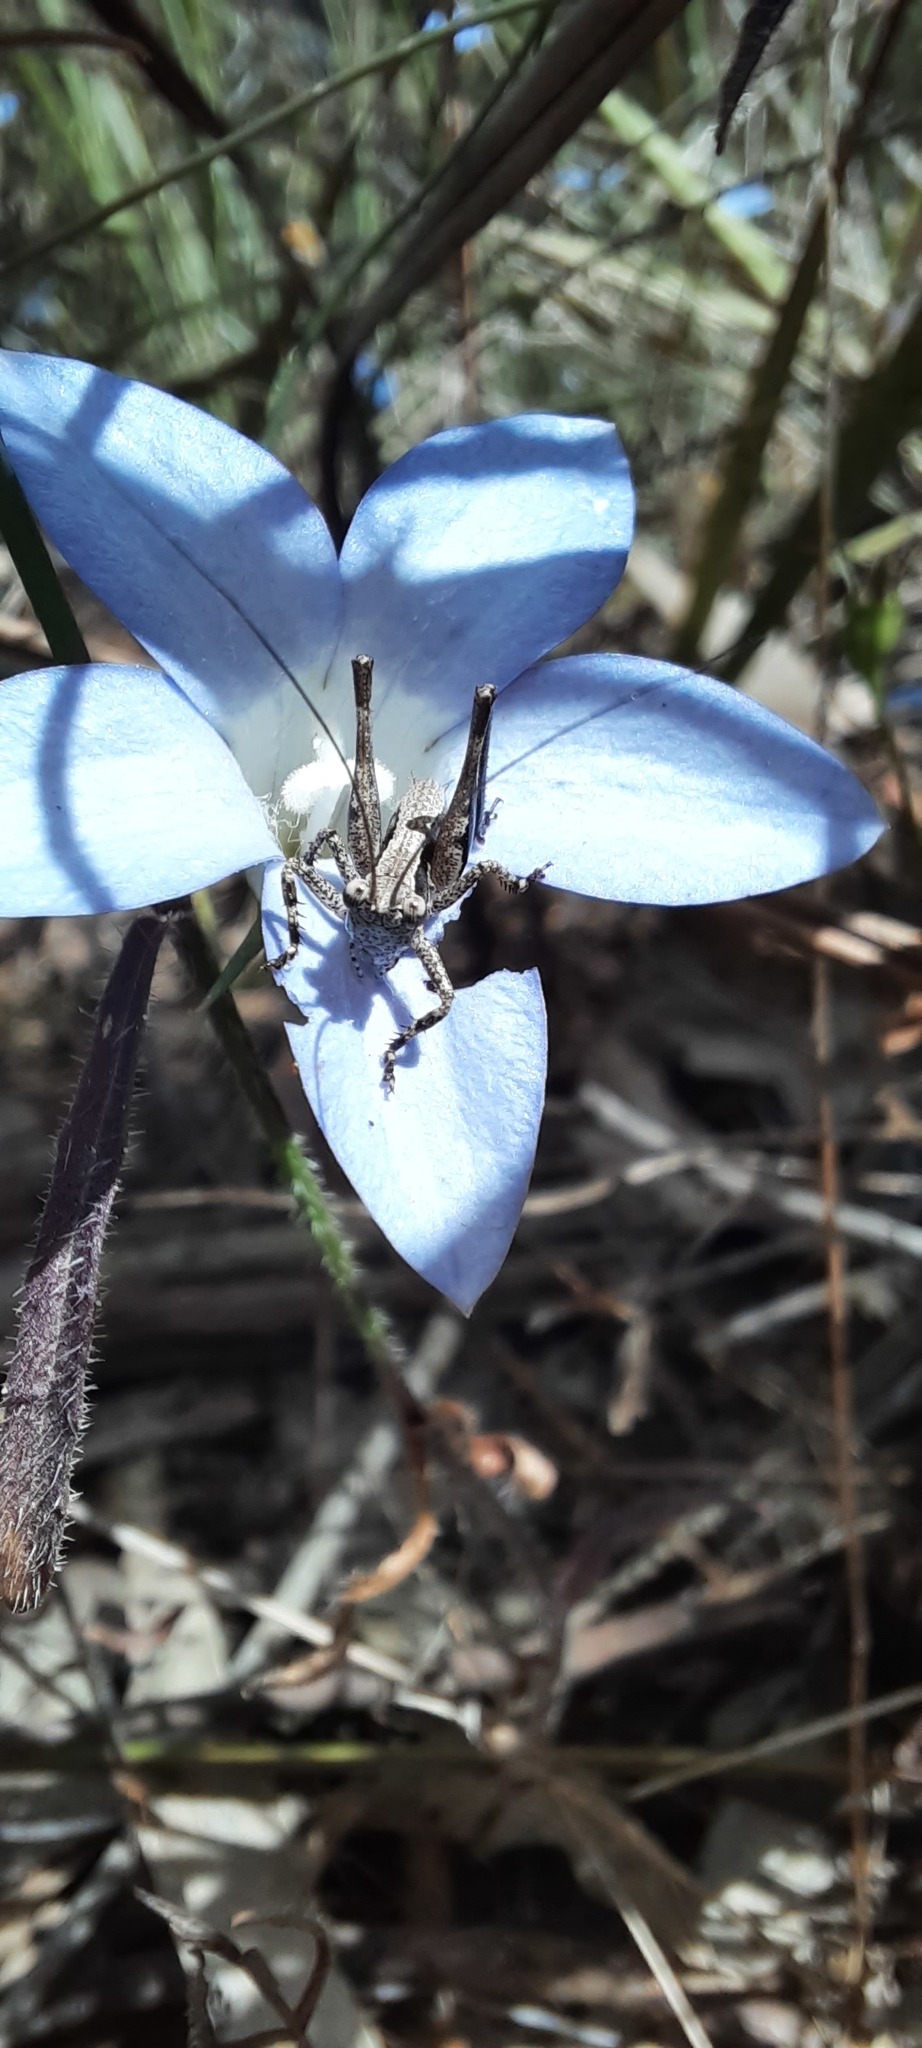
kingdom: Animalia
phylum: Arthropoda
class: Insecta
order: Orthoptera
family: Tettigoniidae
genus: Nanodectes
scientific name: Nanodectes harpax
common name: Small shield-back
